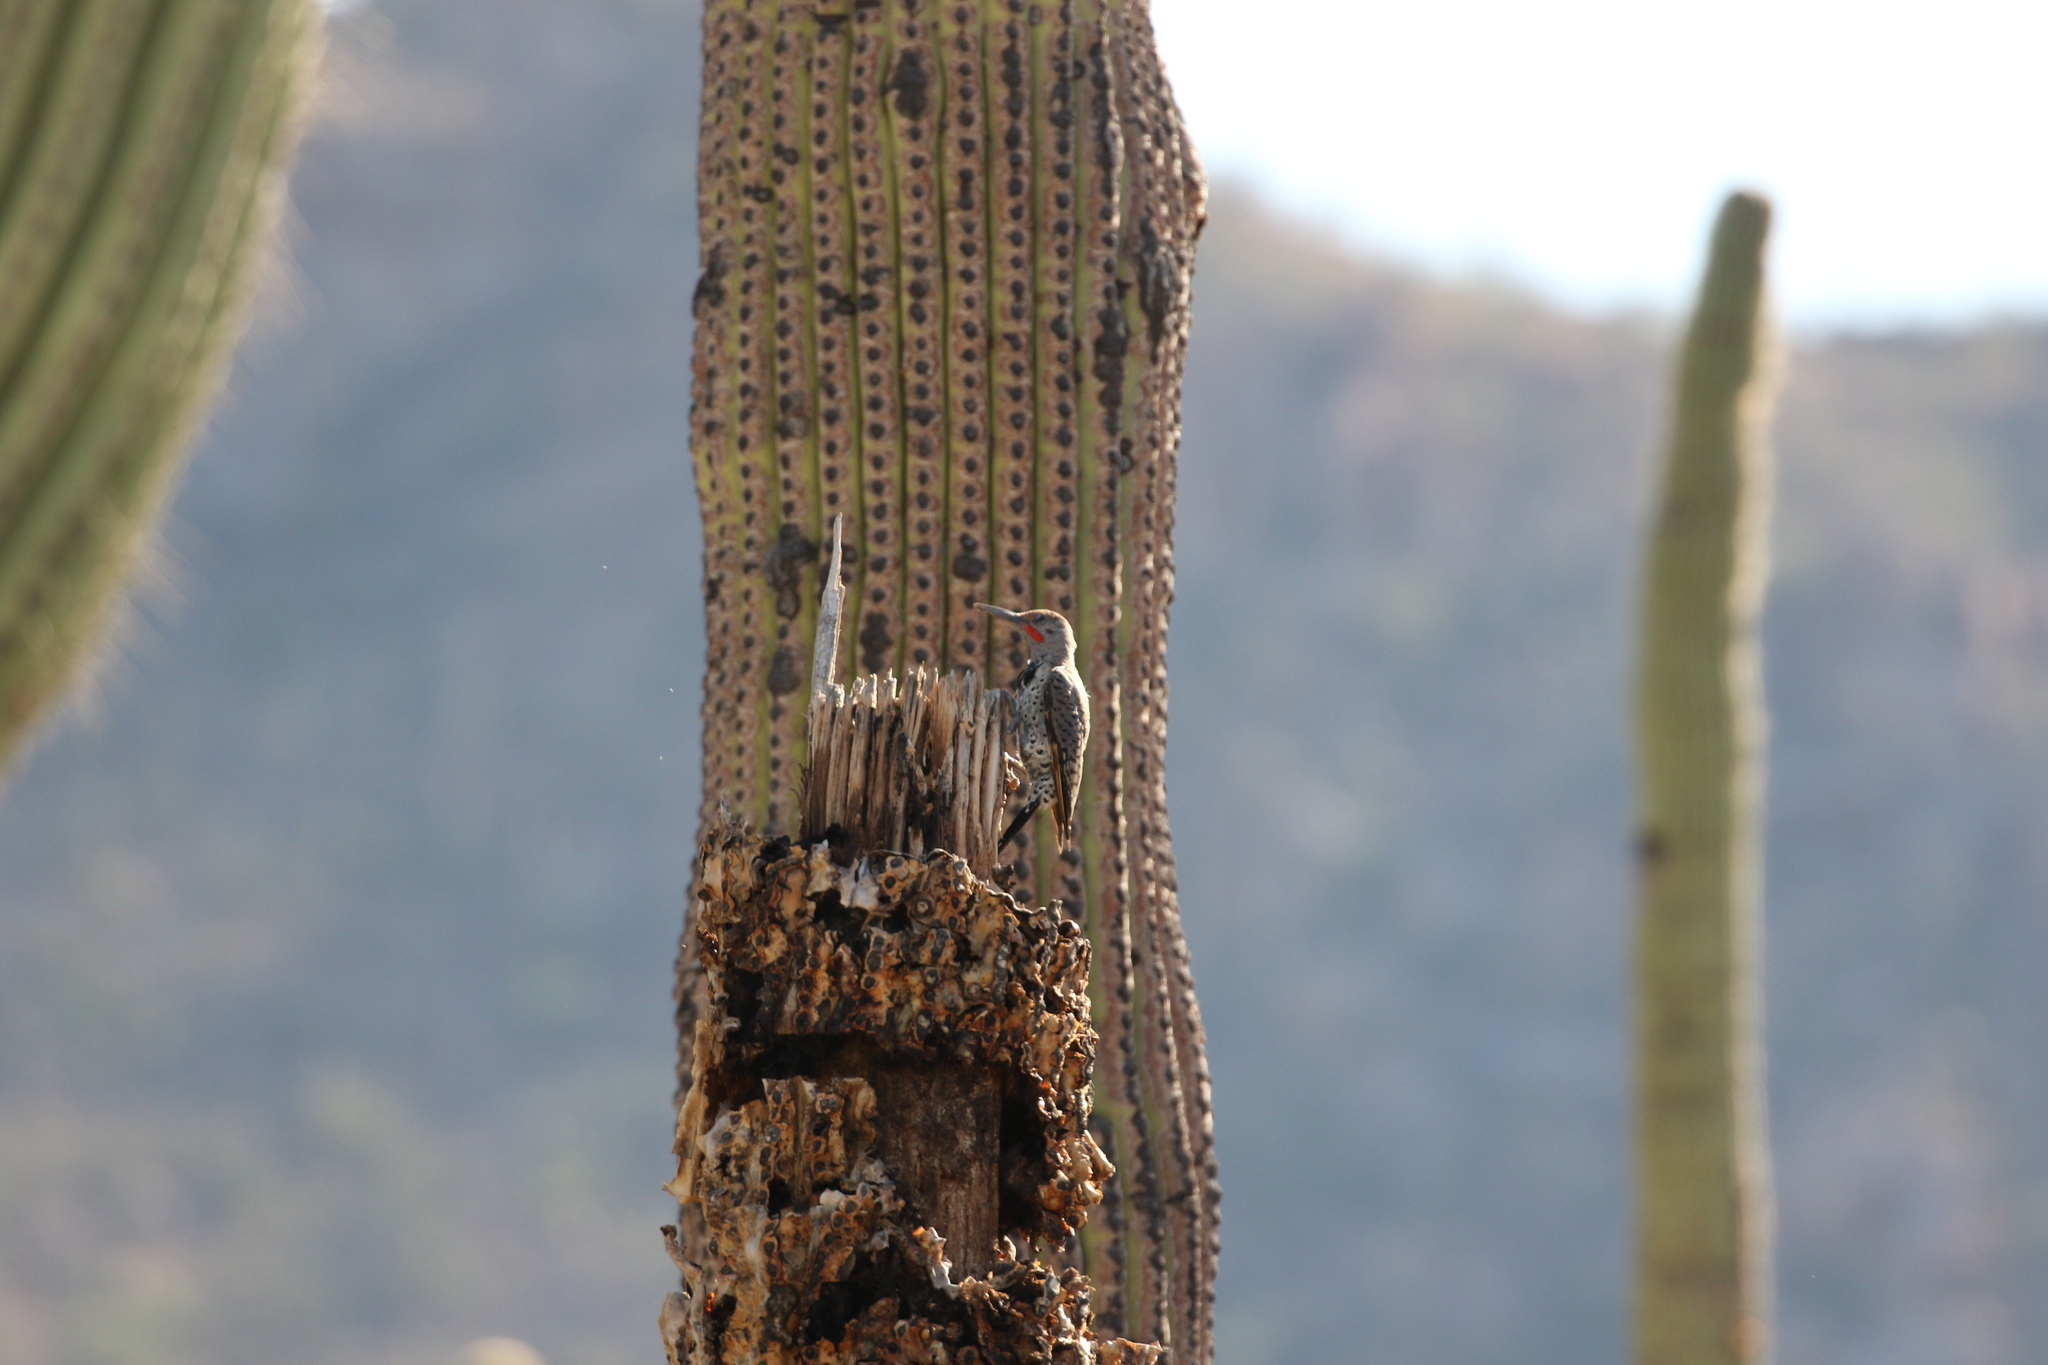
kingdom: Animalia
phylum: Chordata
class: Aves
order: Piciformes
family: Picidae
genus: Colaptes
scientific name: Colaptes chrysoides
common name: Gilded flicker
